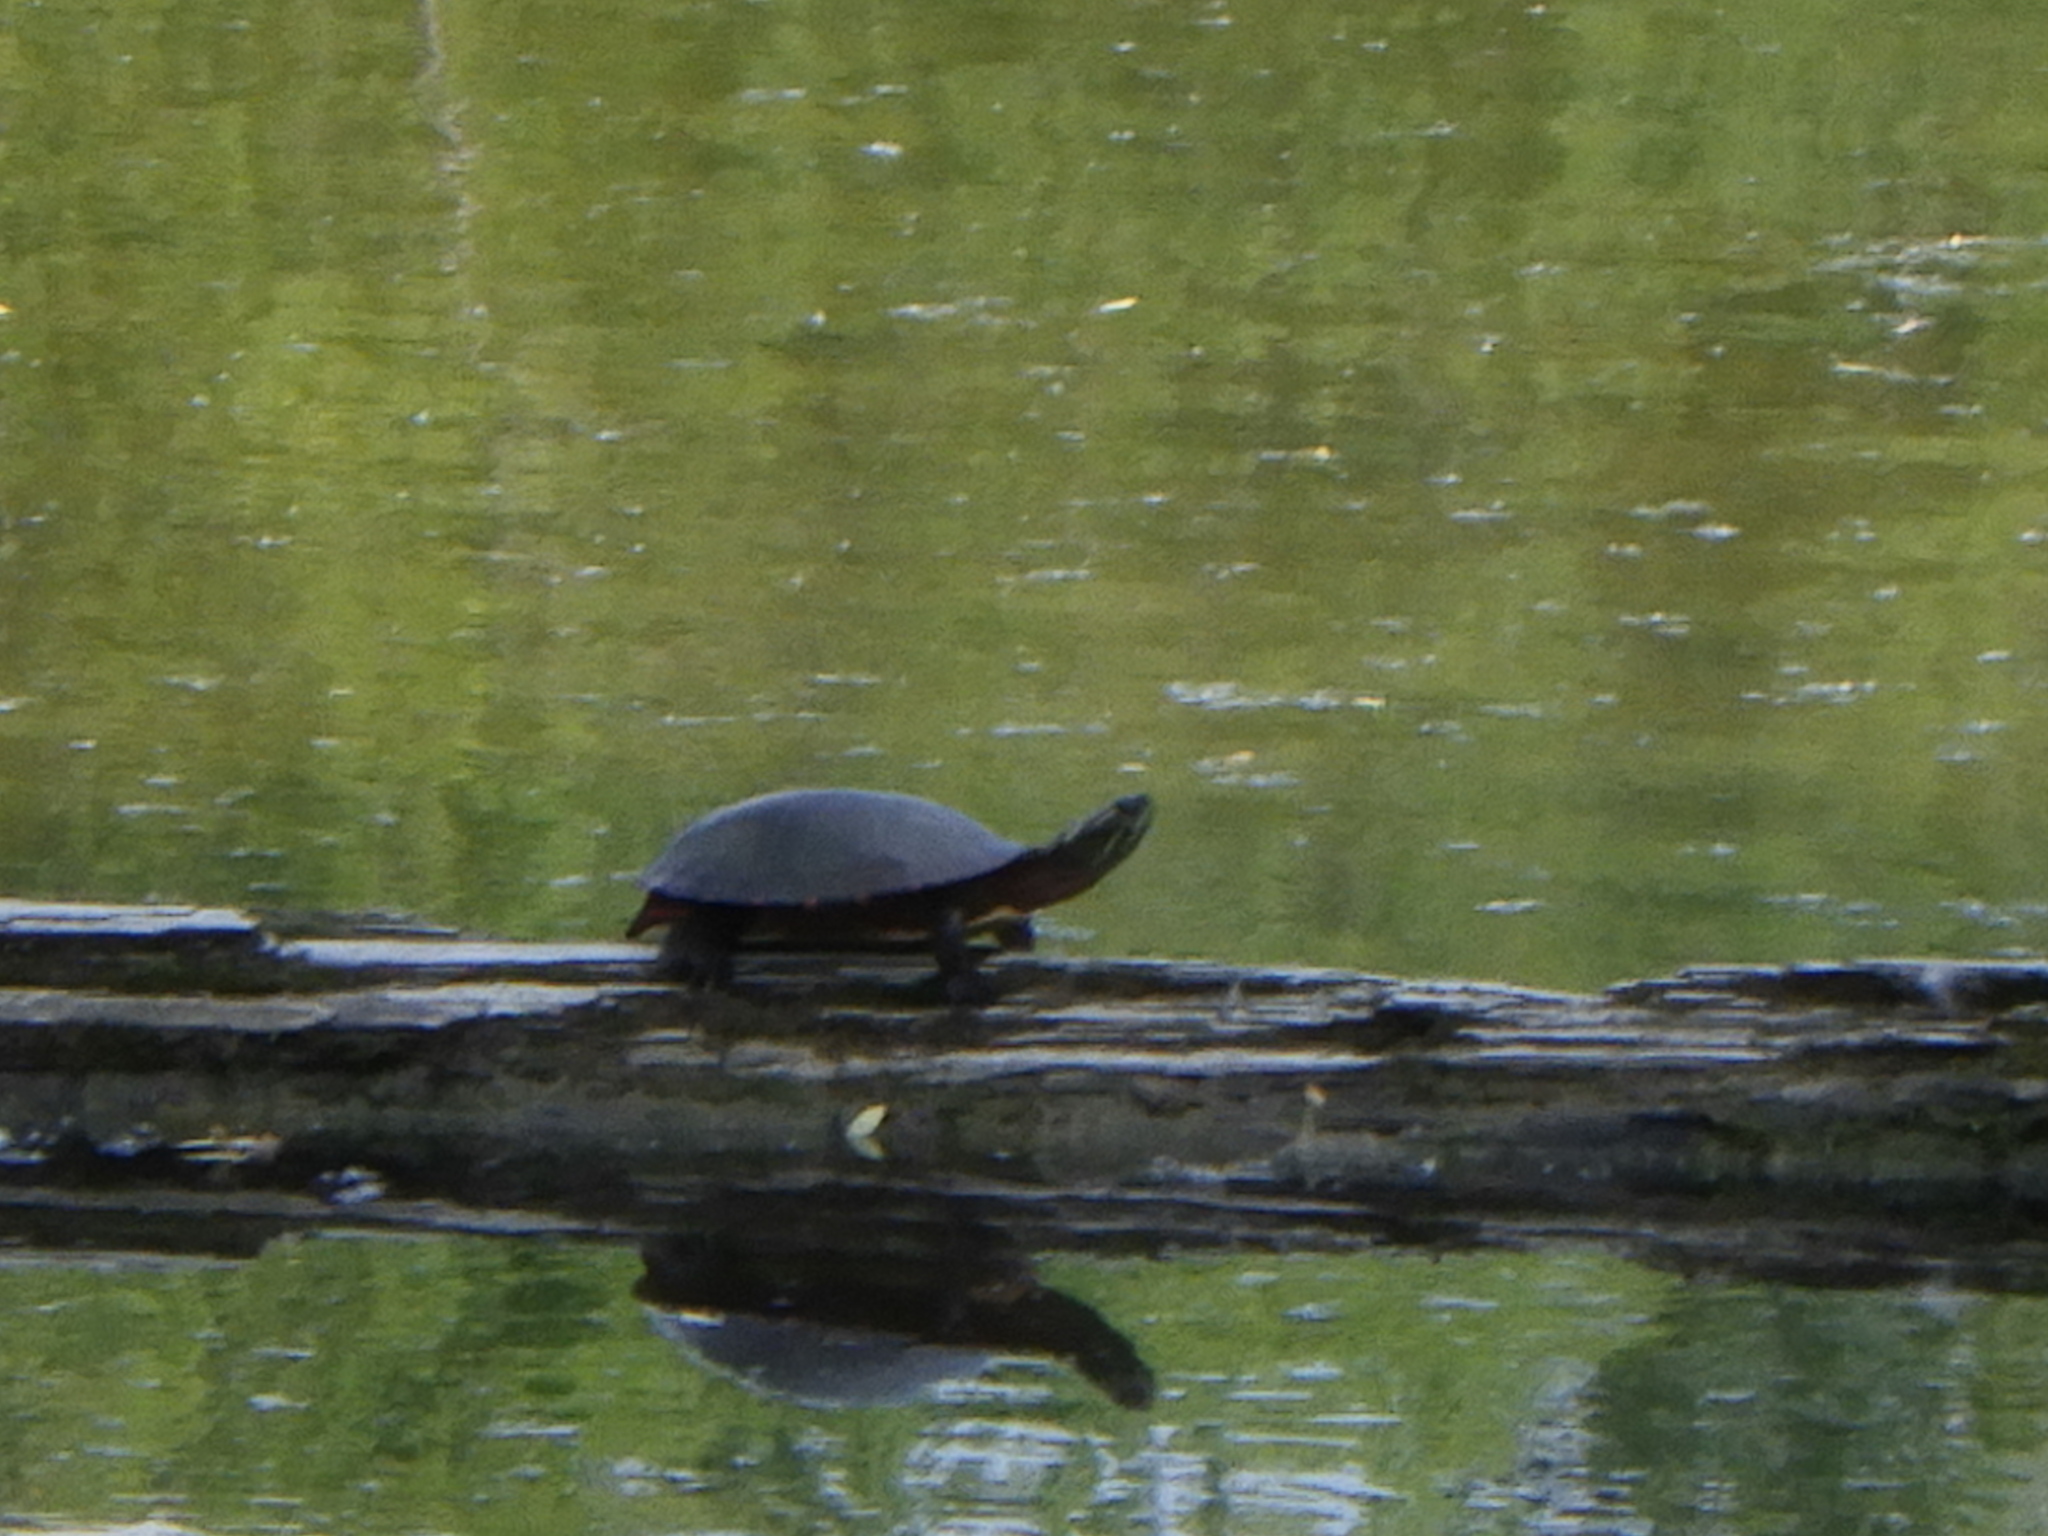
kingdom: Animalia
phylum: Chordata
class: Testudines
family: Emydidae
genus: Chrysemys
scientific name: Chrysemys picta
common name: Painted turtle
